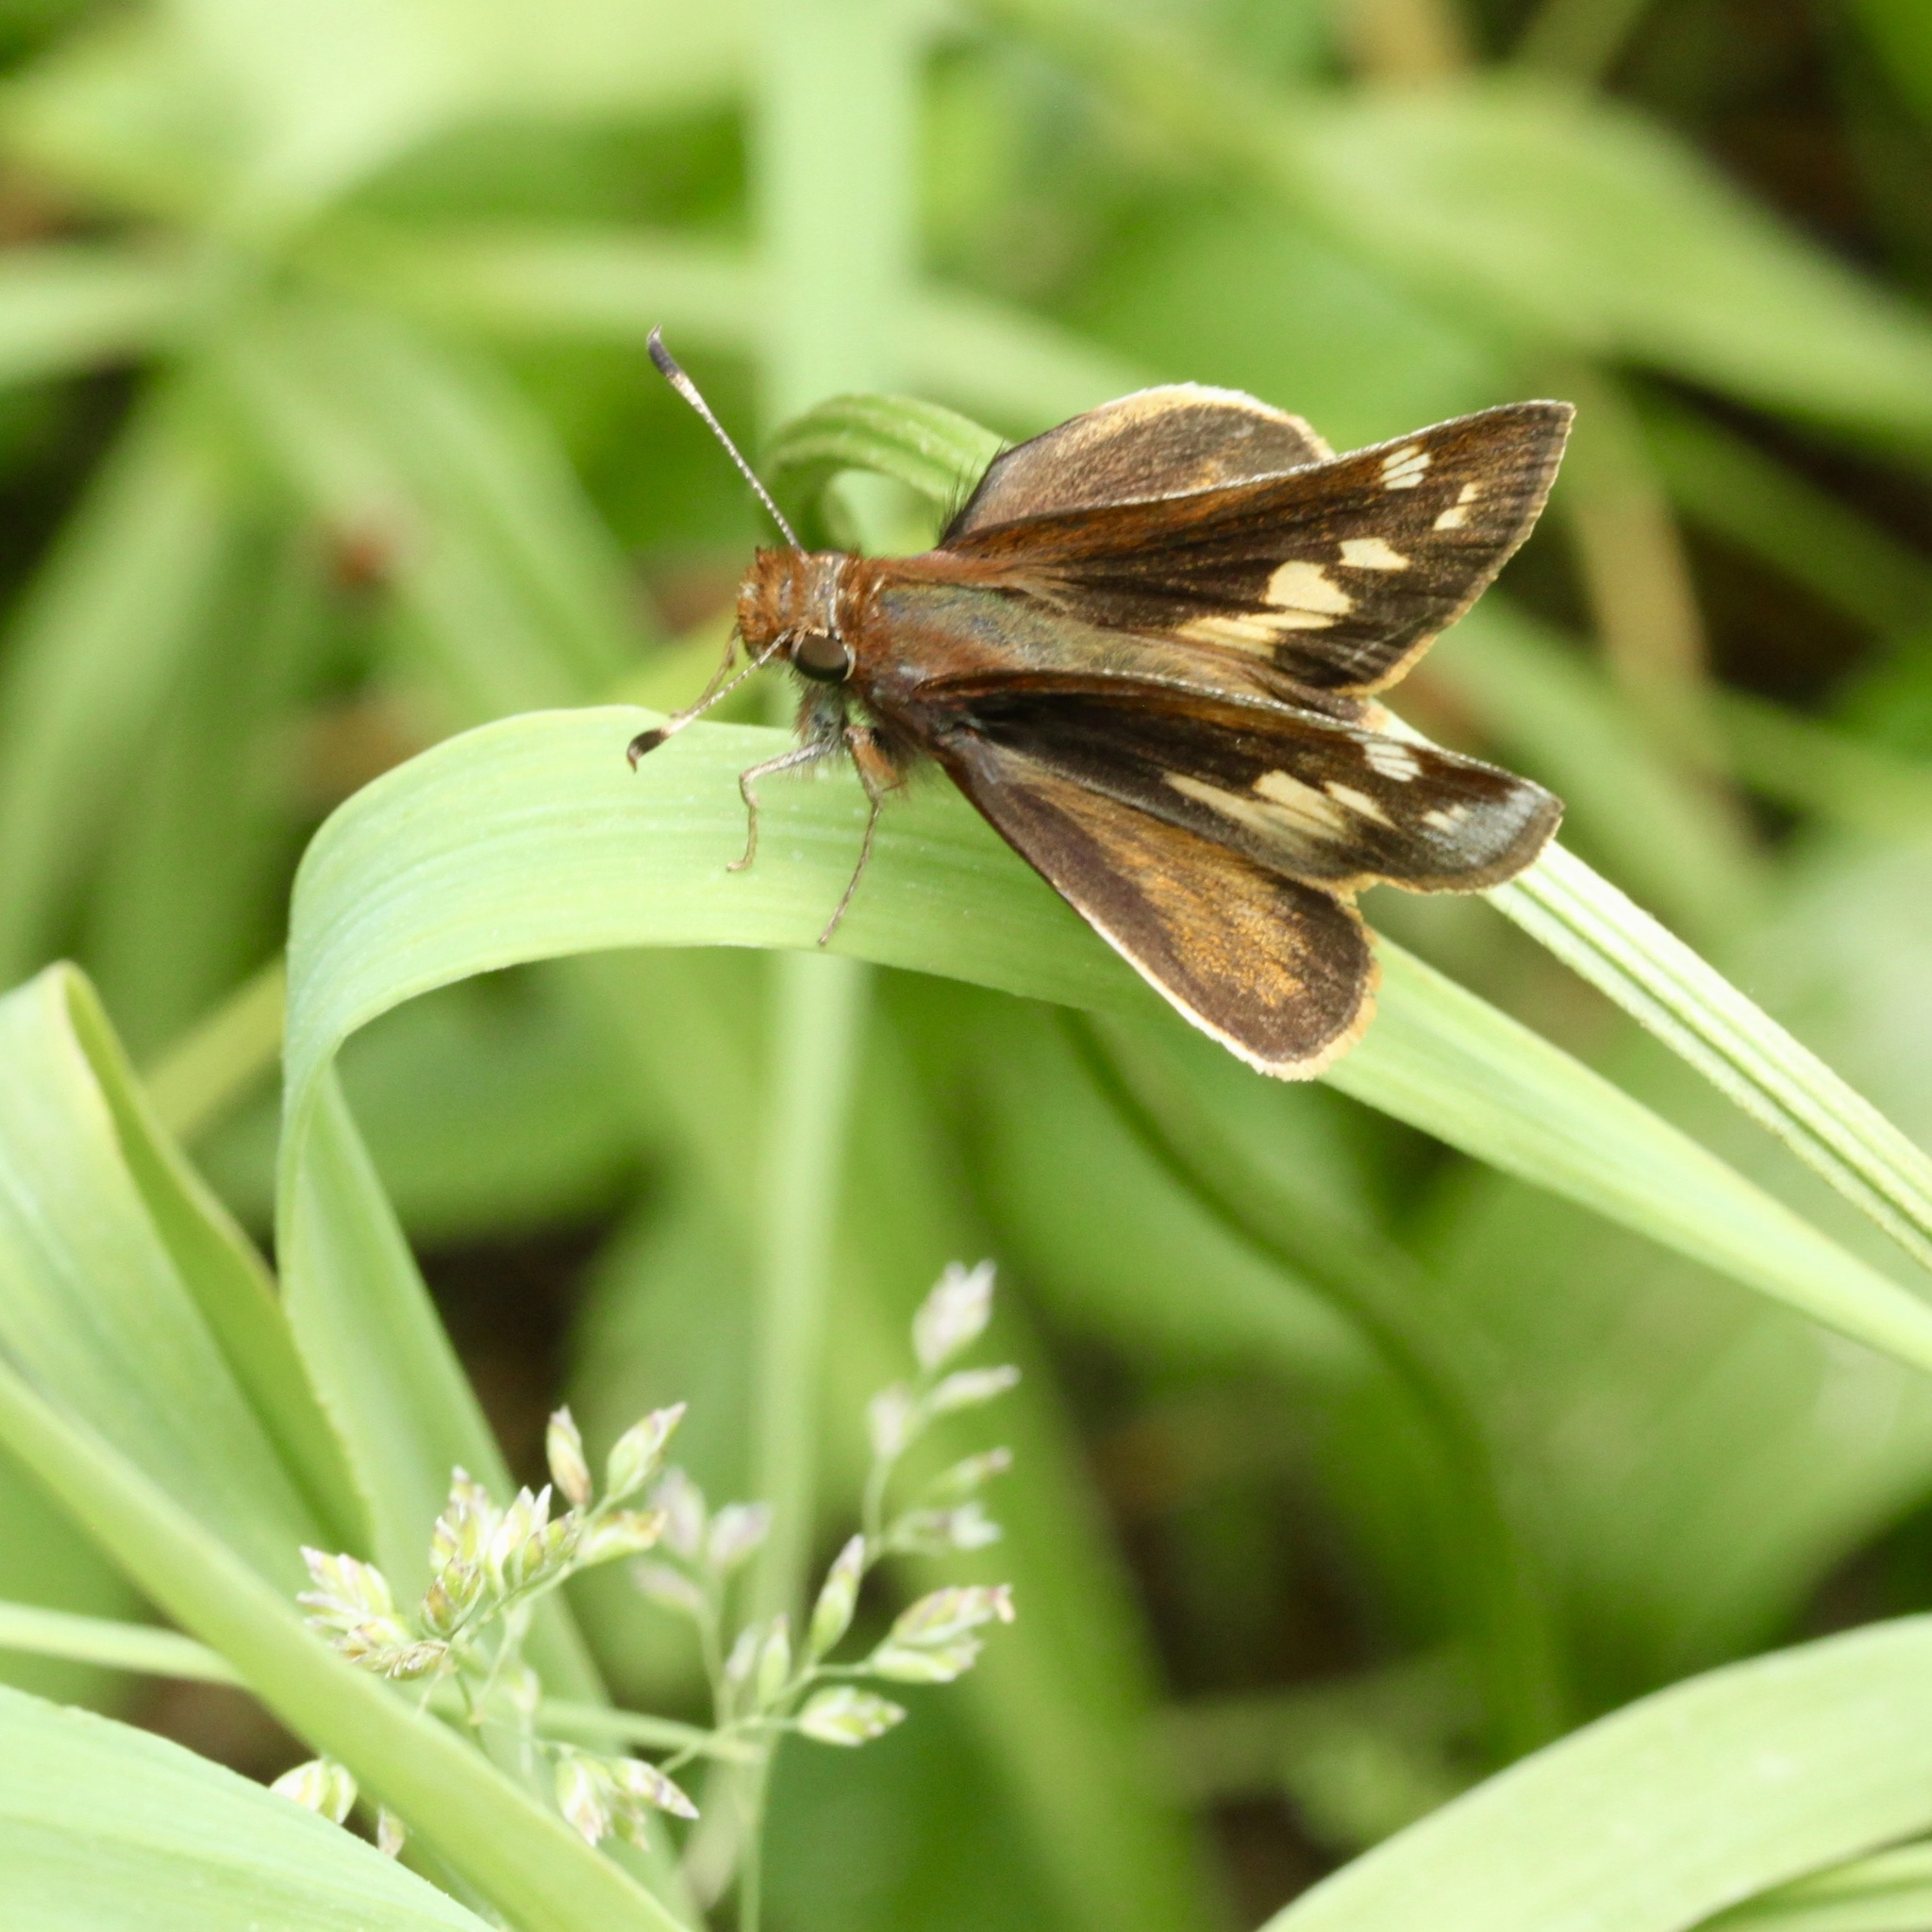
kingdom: Animalia
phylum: Arthropoda
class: Insecta
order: Lepidoptera
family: Hesperiidae
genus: Lon
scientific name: Lon zabulon
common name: Zabulon skipper
